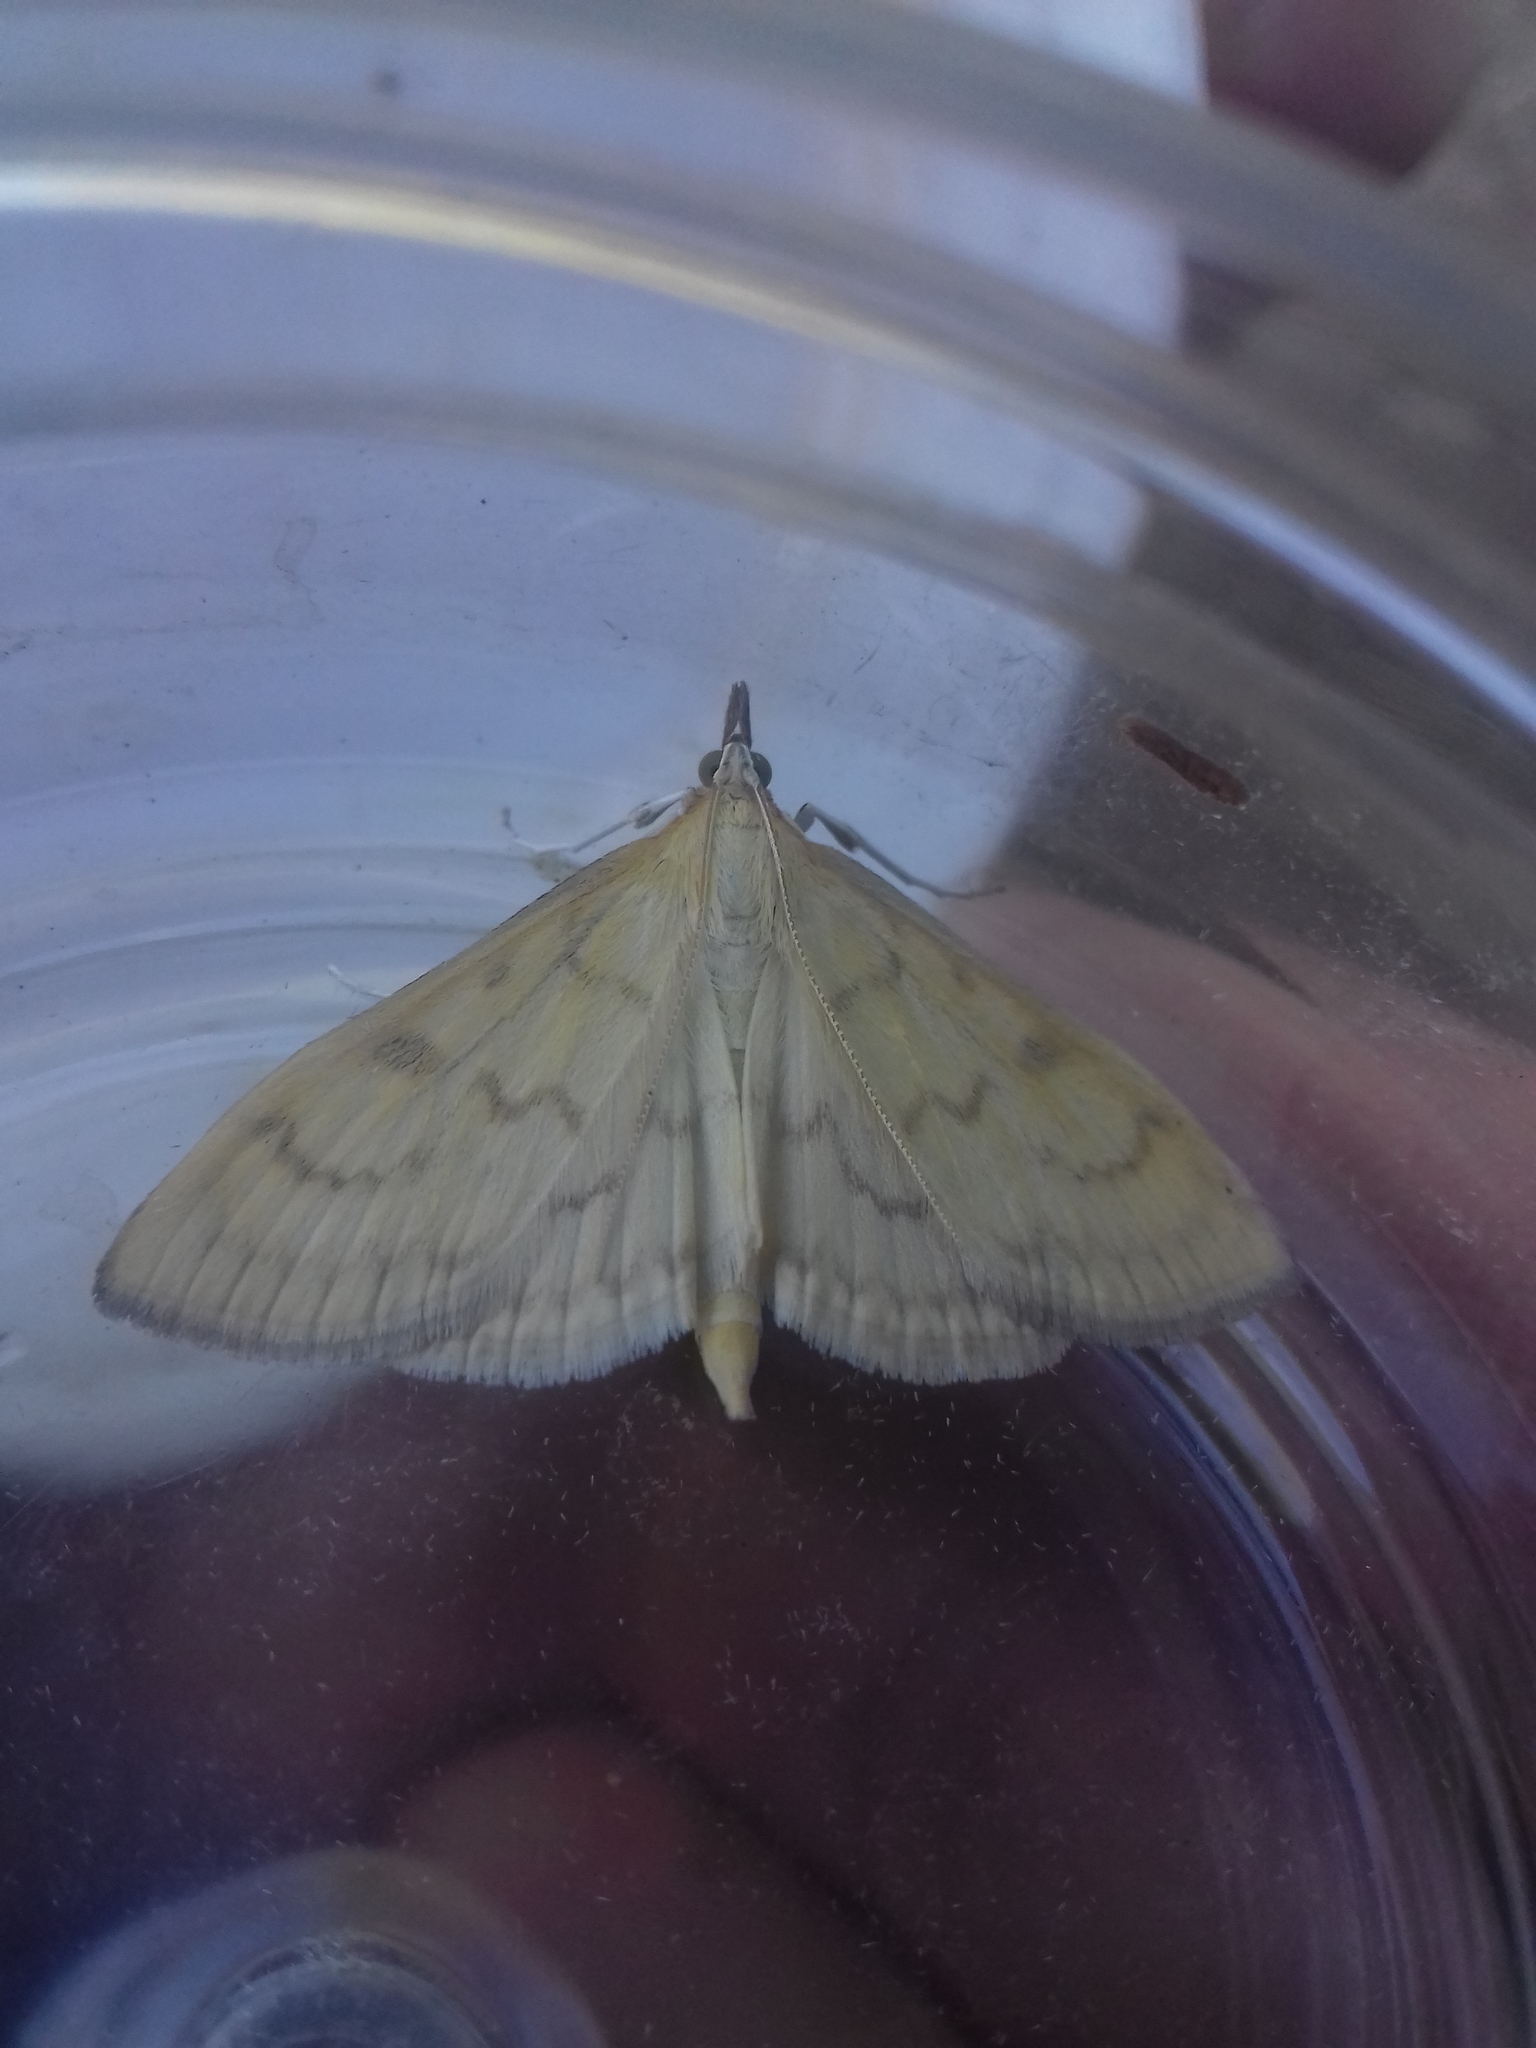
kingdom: Animalia
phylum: Arthropoda
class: Insecta
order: Lepidoptera
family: Crambidae
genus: Paratalanta
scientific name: Paratalanta hyalinalis
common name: Translucent pearl
